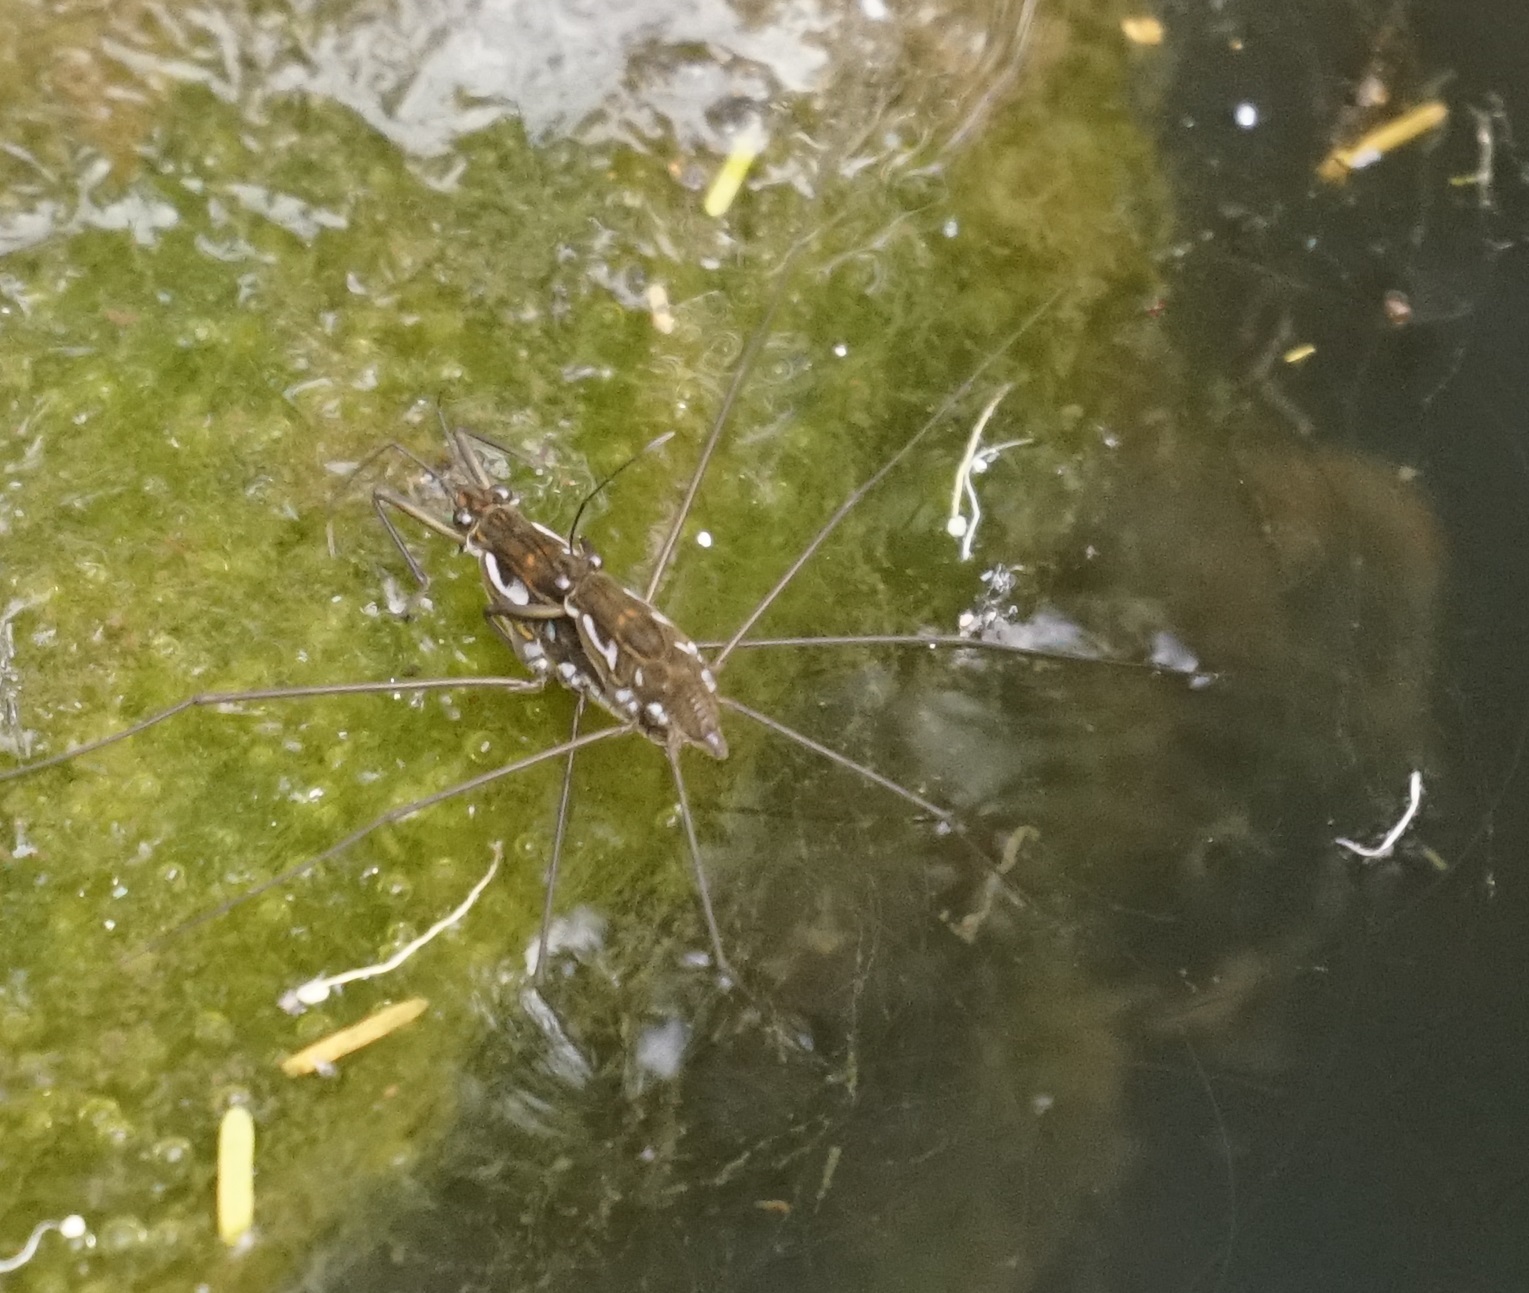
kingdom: Animalia
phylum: Arthropoda
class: Insecta
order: Hemiptera
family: Gerridae
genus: Tenagogerris
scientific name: Tenagogerris euphrosyne
